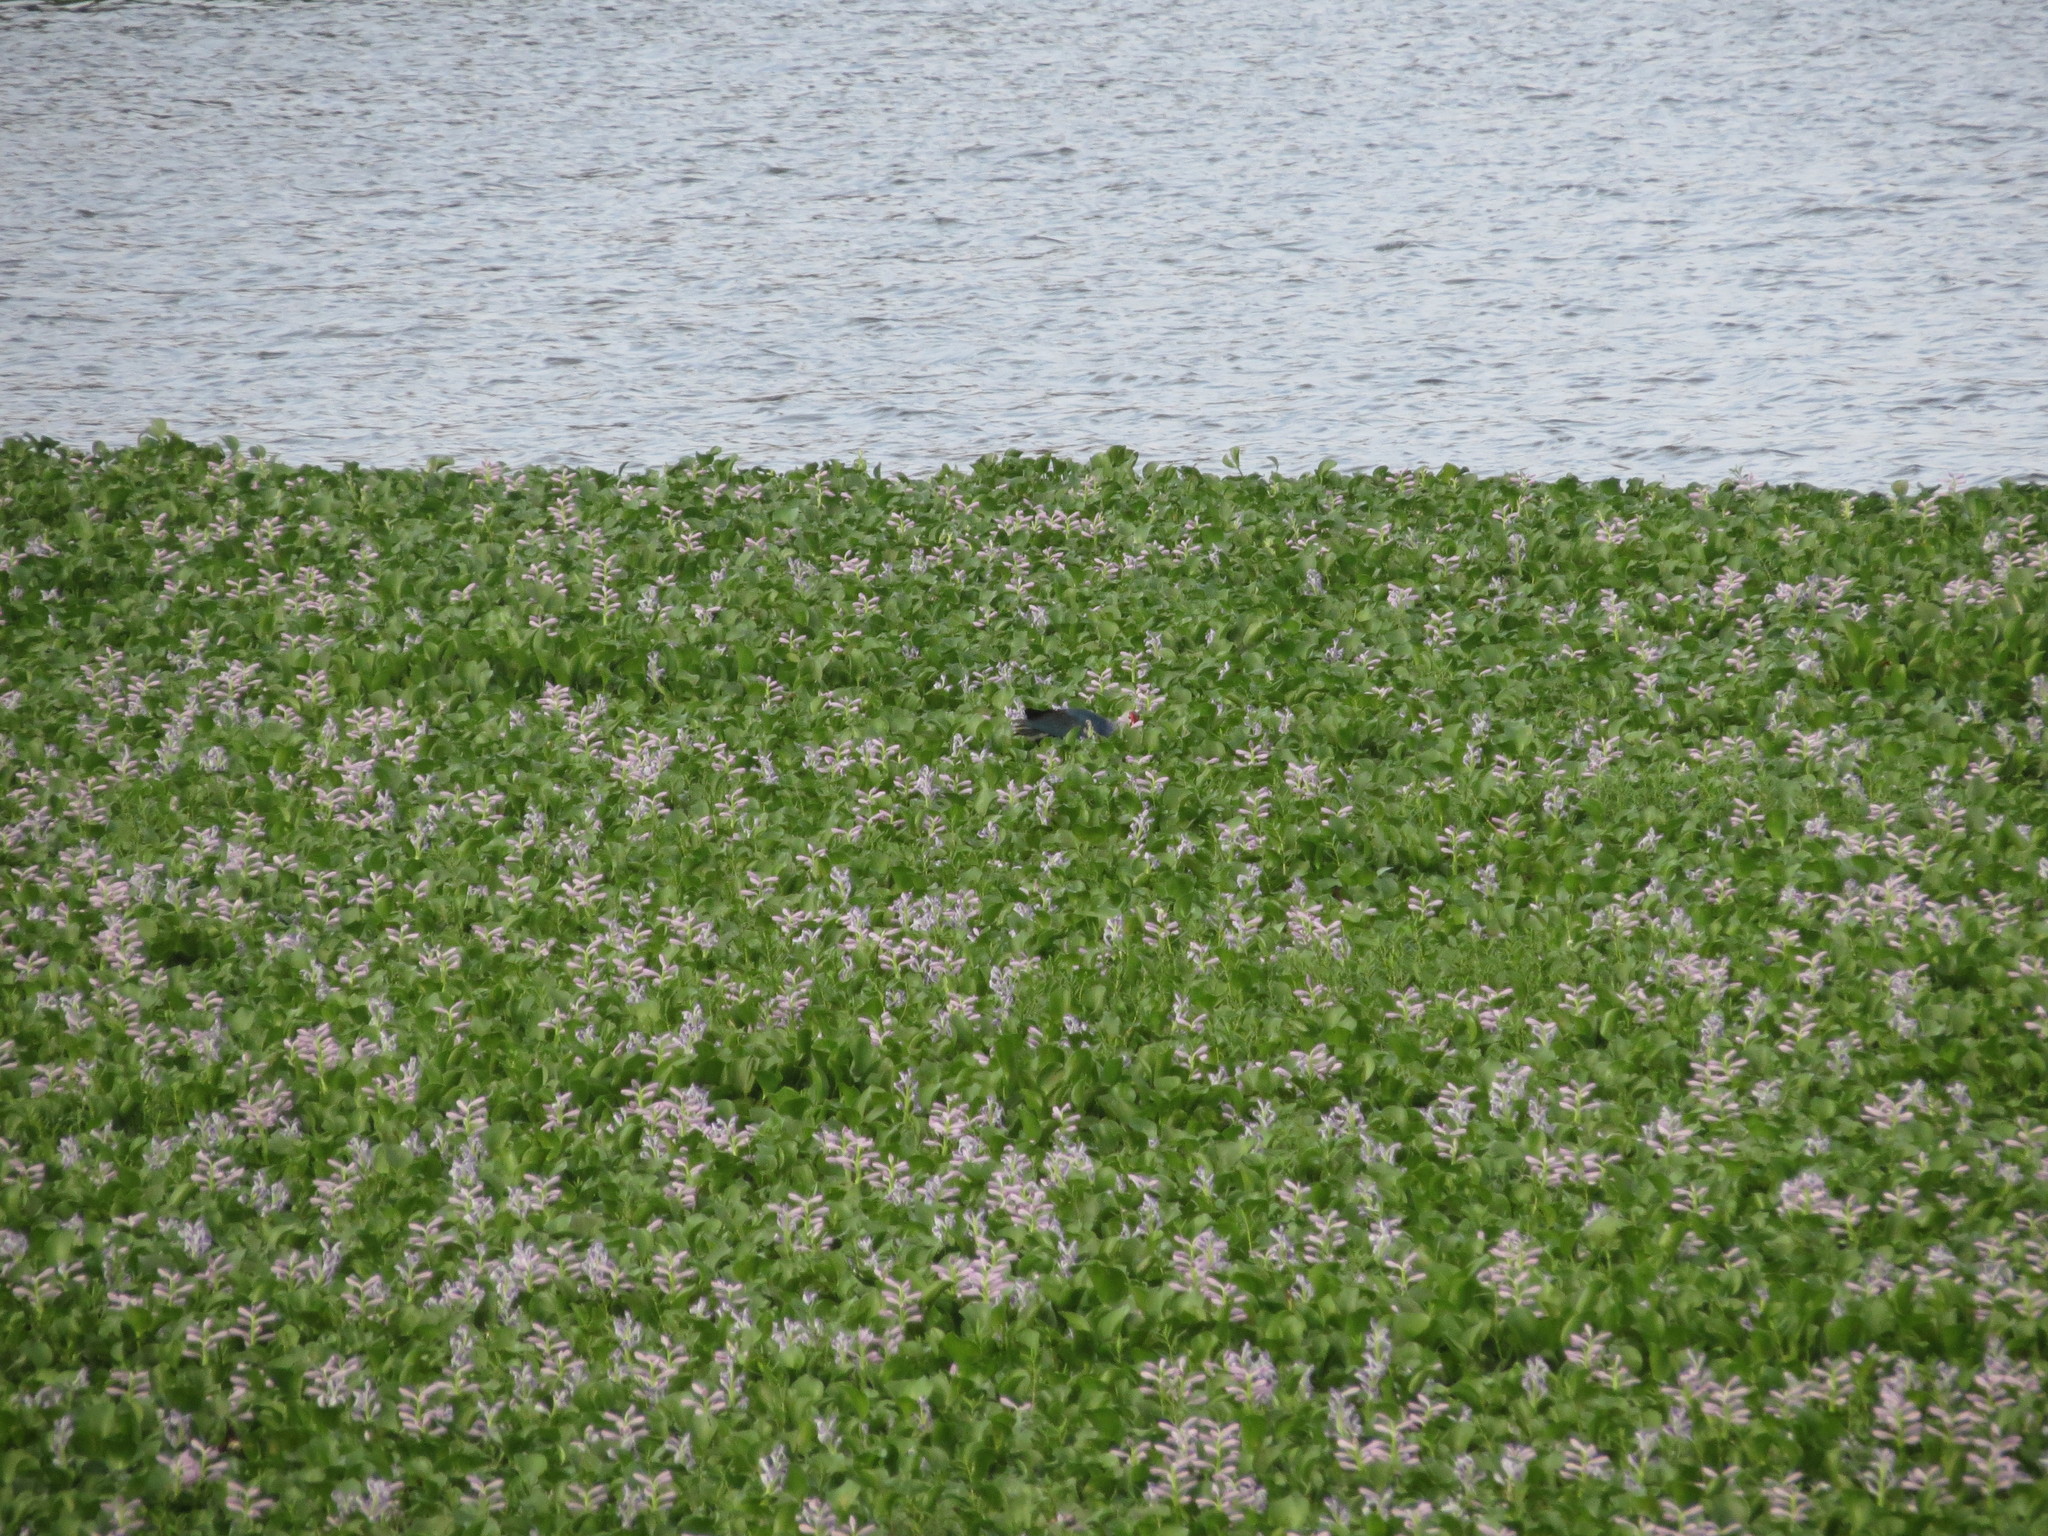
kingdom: Plantae
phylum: Tracheophyta
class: Liliopsida
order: Commelinales
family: Pontederiaceae
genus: Pontederia
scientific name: Pontederia crassipes
